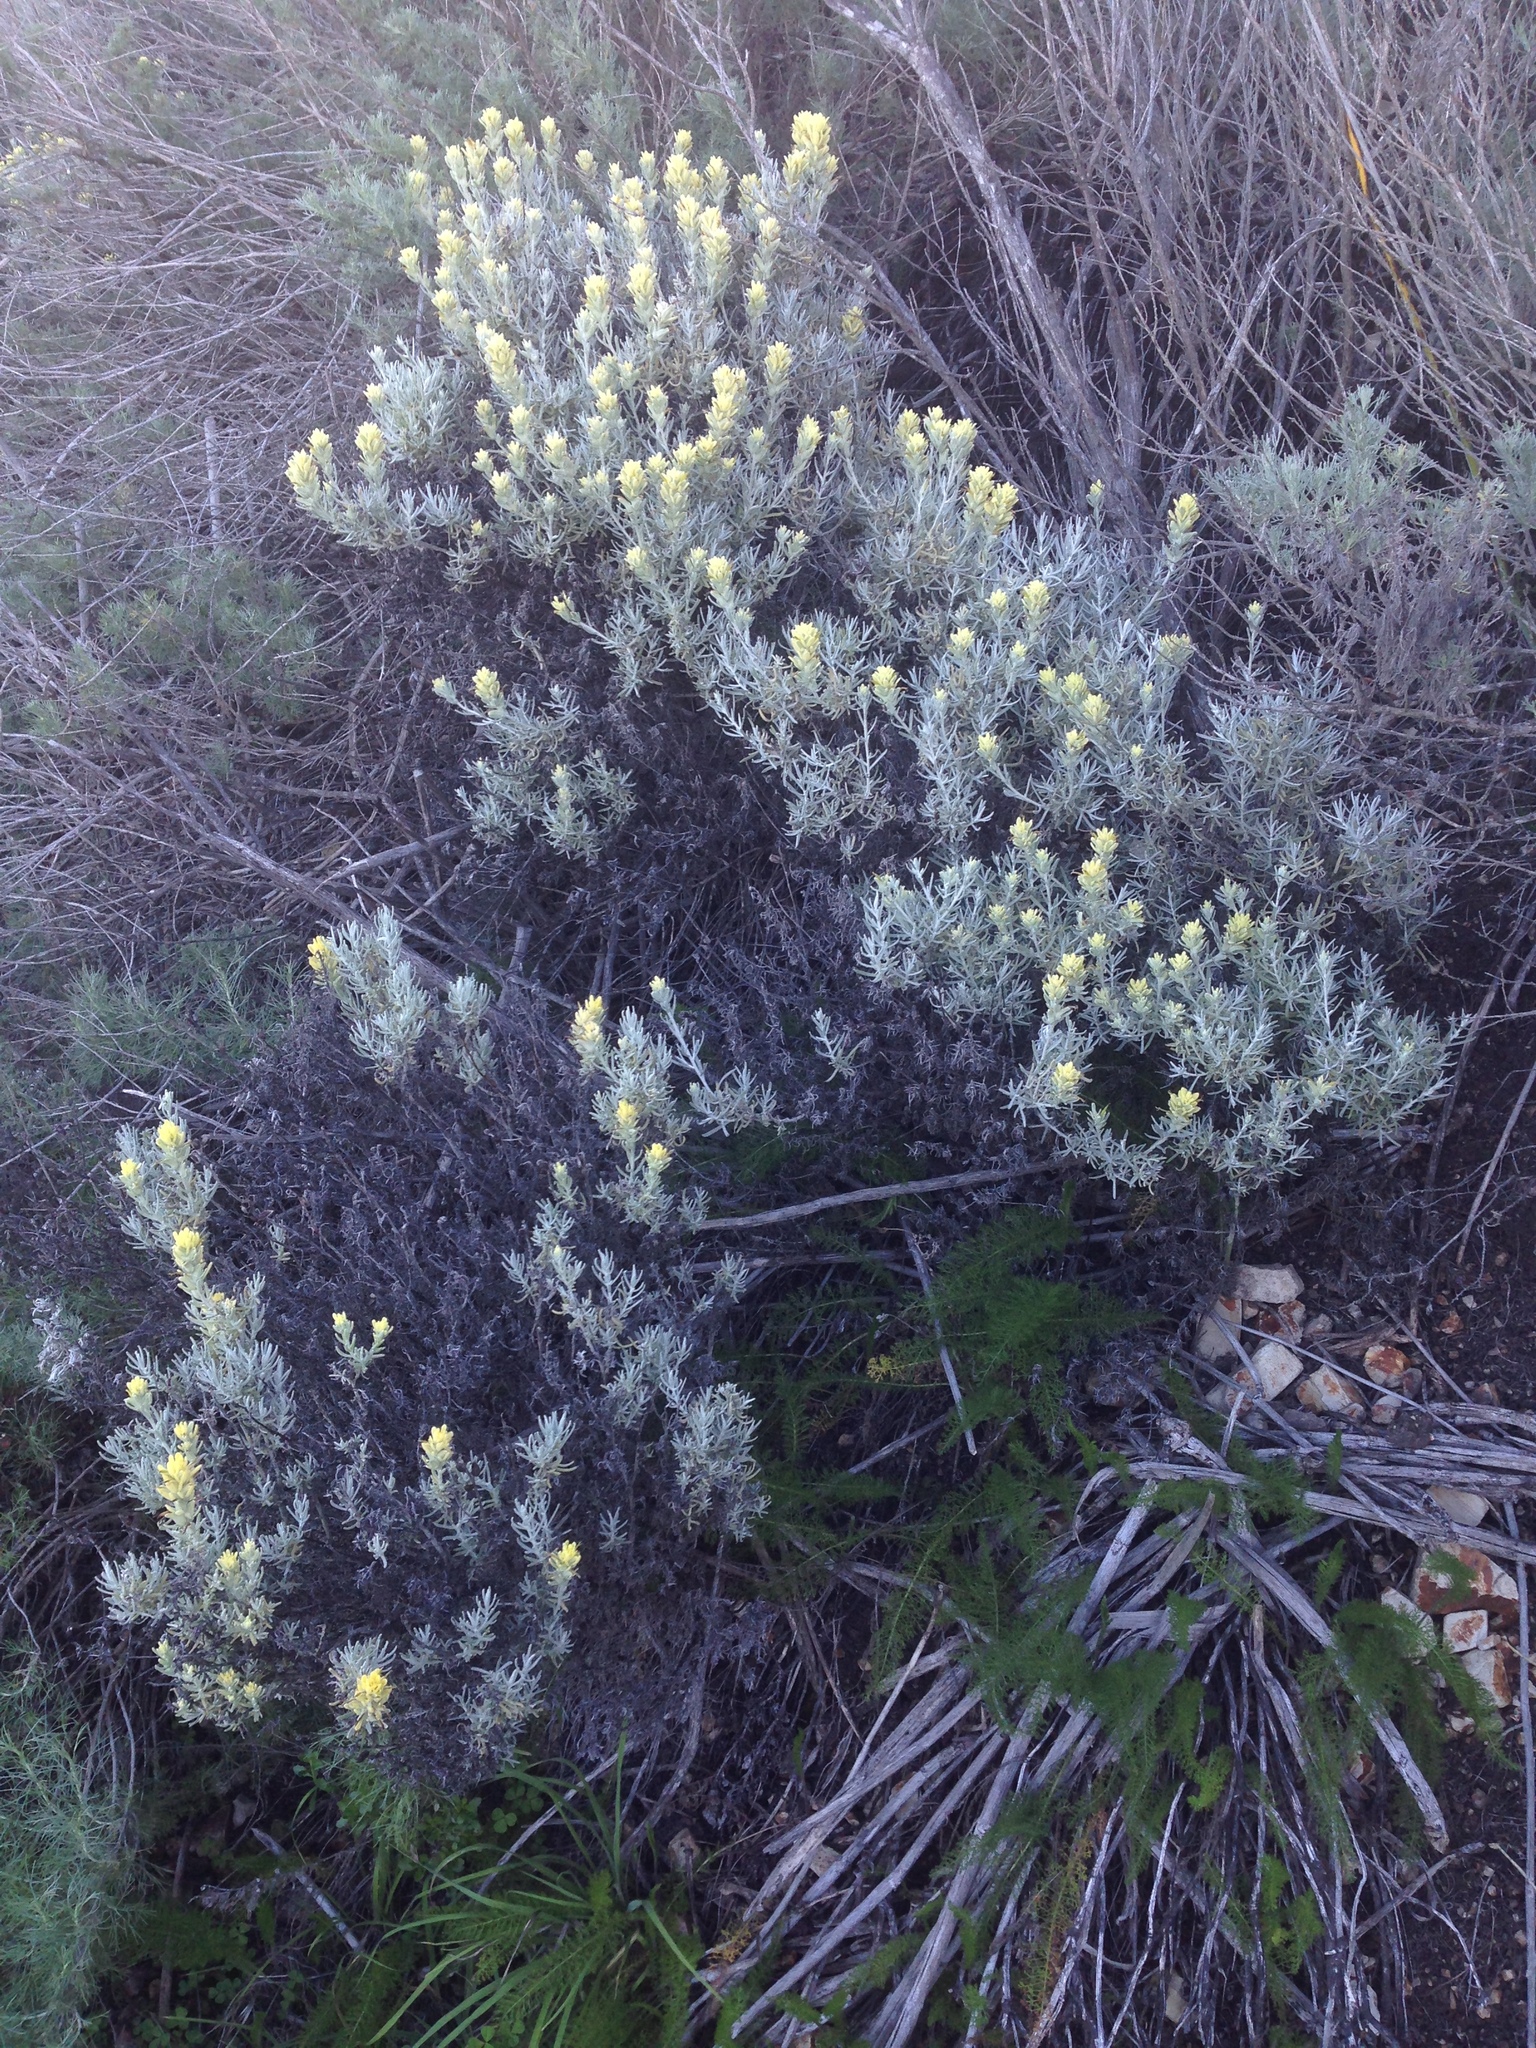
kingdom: Plantae
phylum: Tracheophyta
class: Magnoliopsida
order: Lamiales
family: Orobanchaceae
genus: Castilleja
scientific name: Castilleja hololeuca
